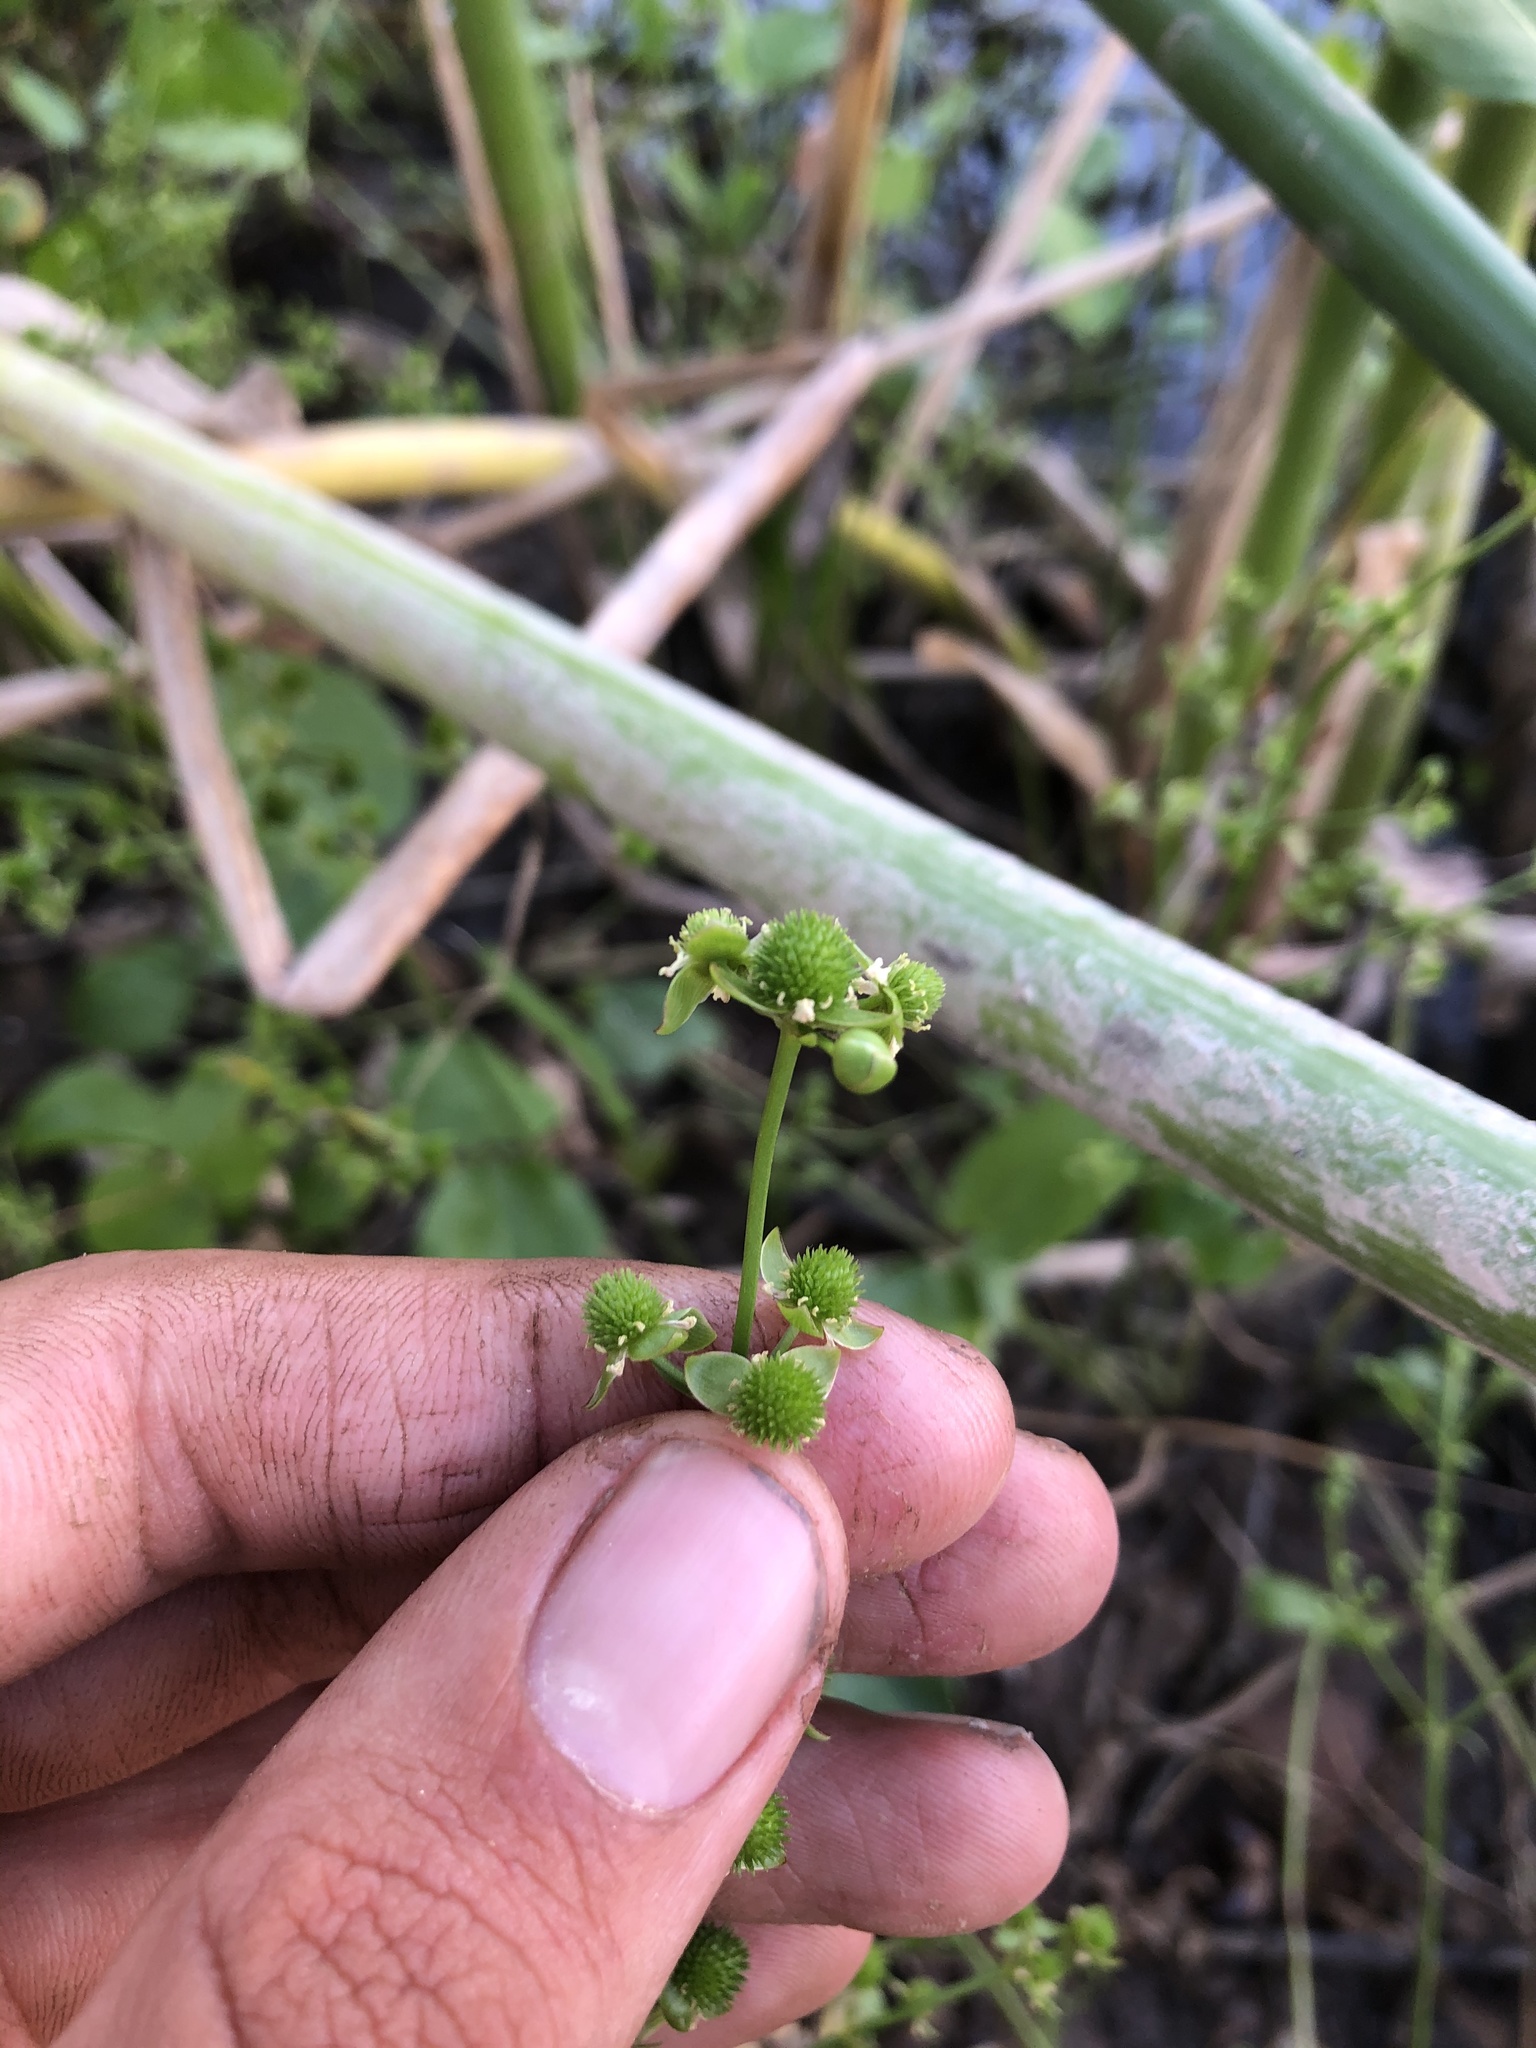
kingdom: Plantae
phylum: Tracheophyta
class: Liliopsida
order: Alismatales
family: Alismataceae
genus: Echinodorus
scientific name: Echinodorus berteroi
